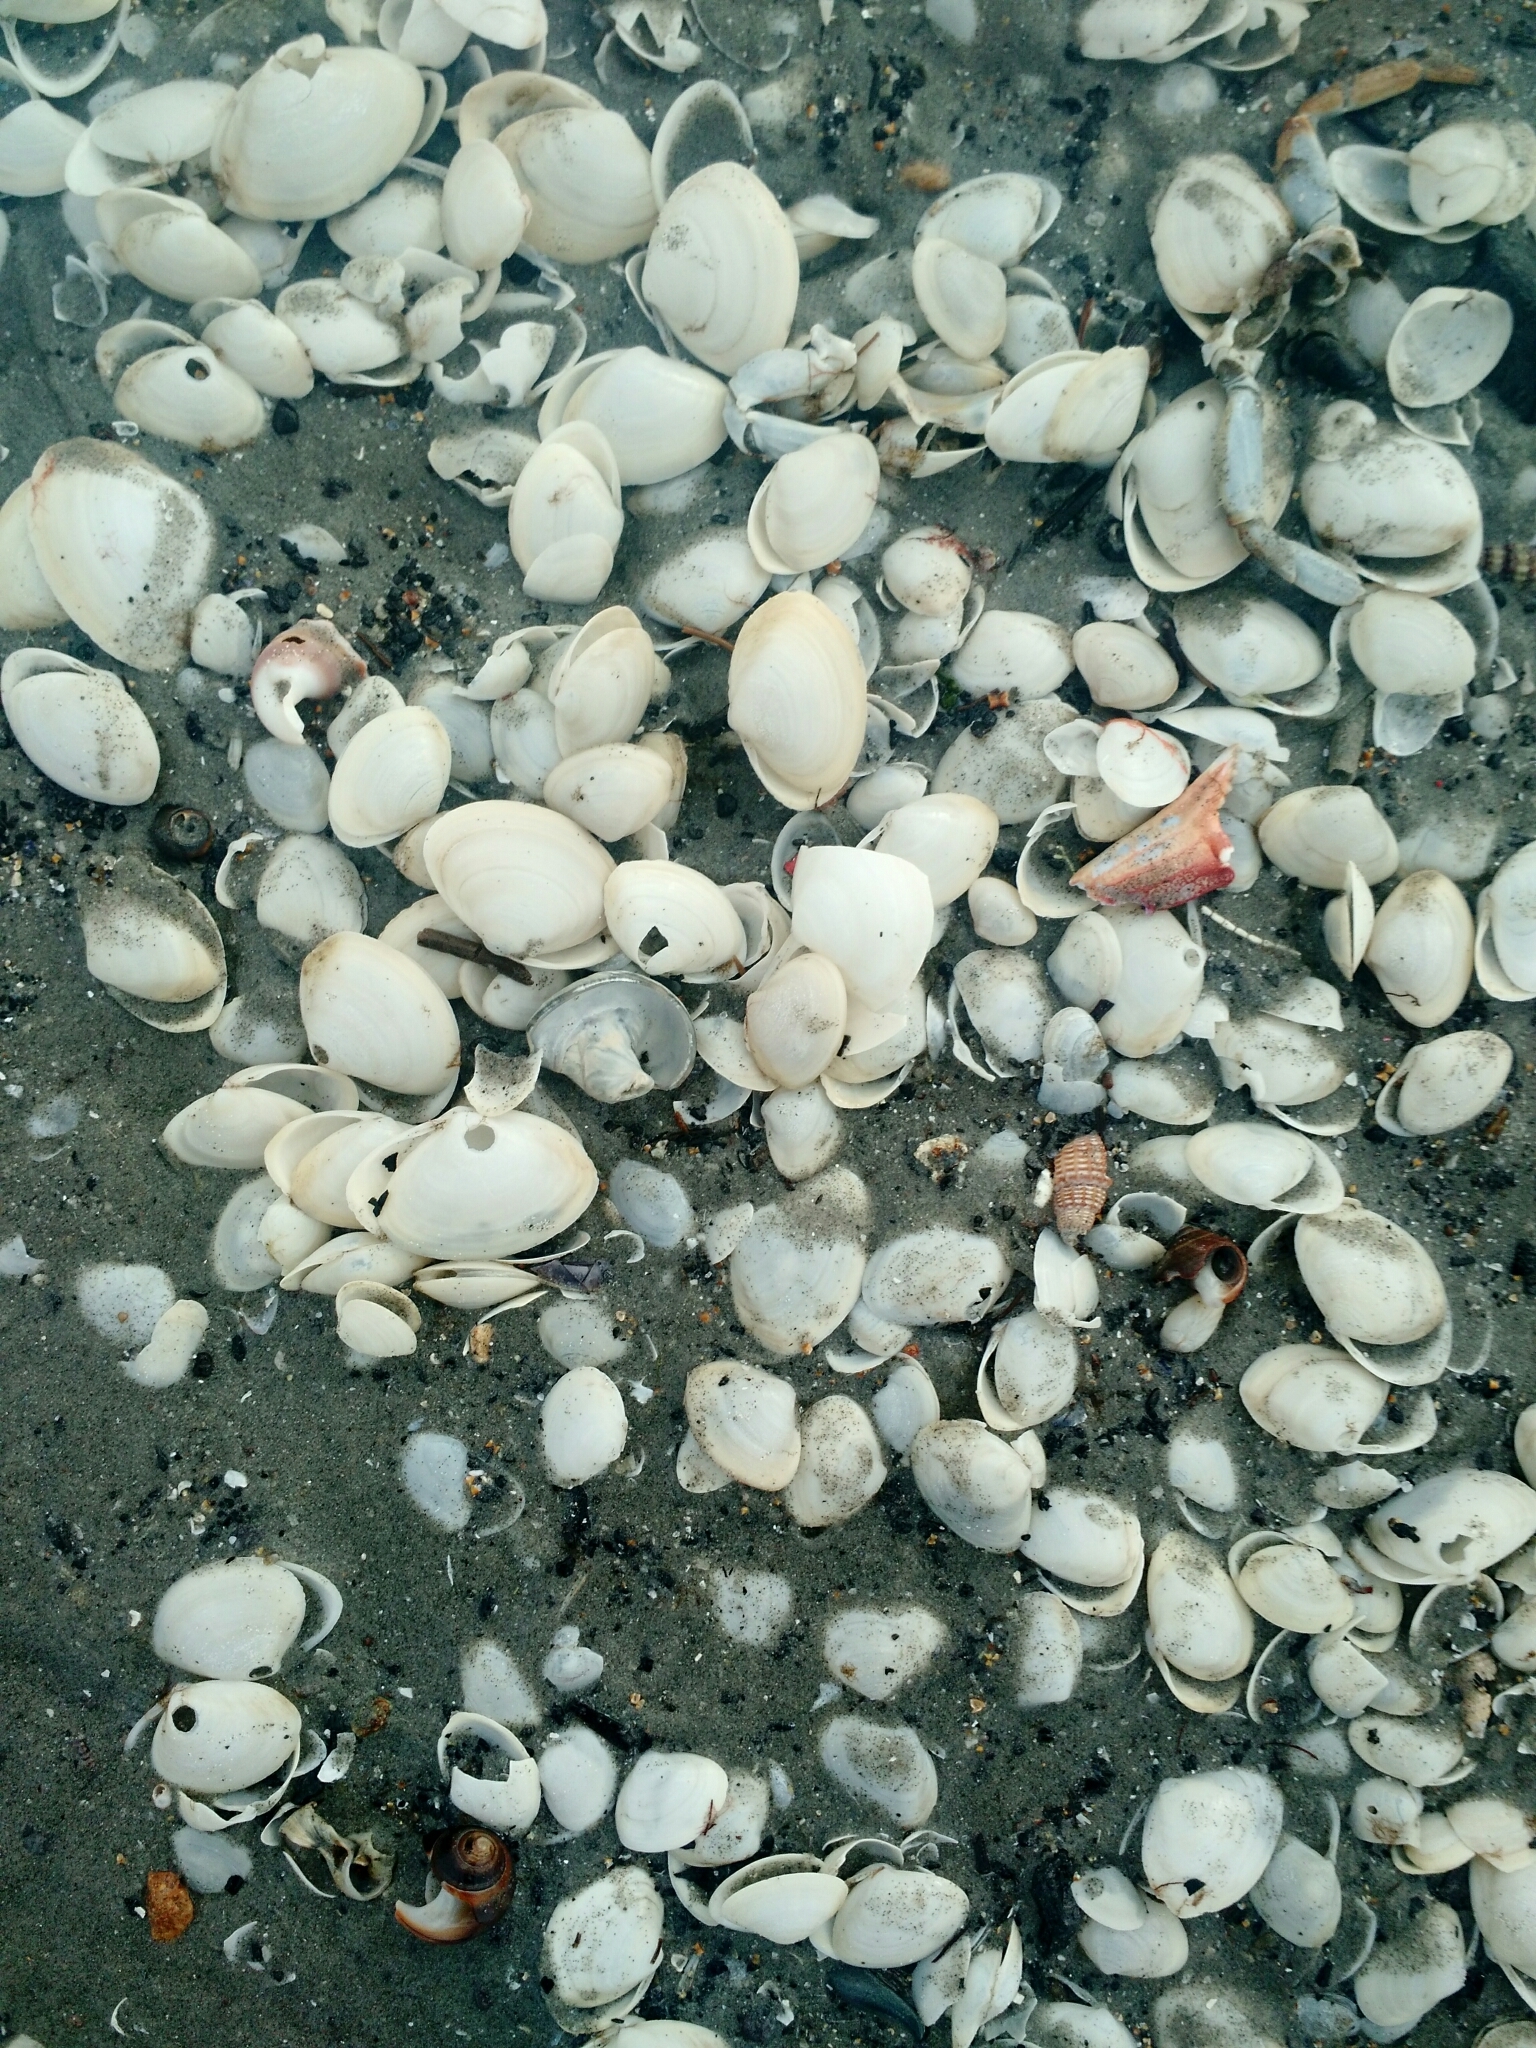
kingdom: Animalia
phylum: Mollusca
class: Bivalvia
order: Venerida
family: Mactridae
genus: Spisula
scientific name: Spisula solidissima
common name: Atlantic surf clam
